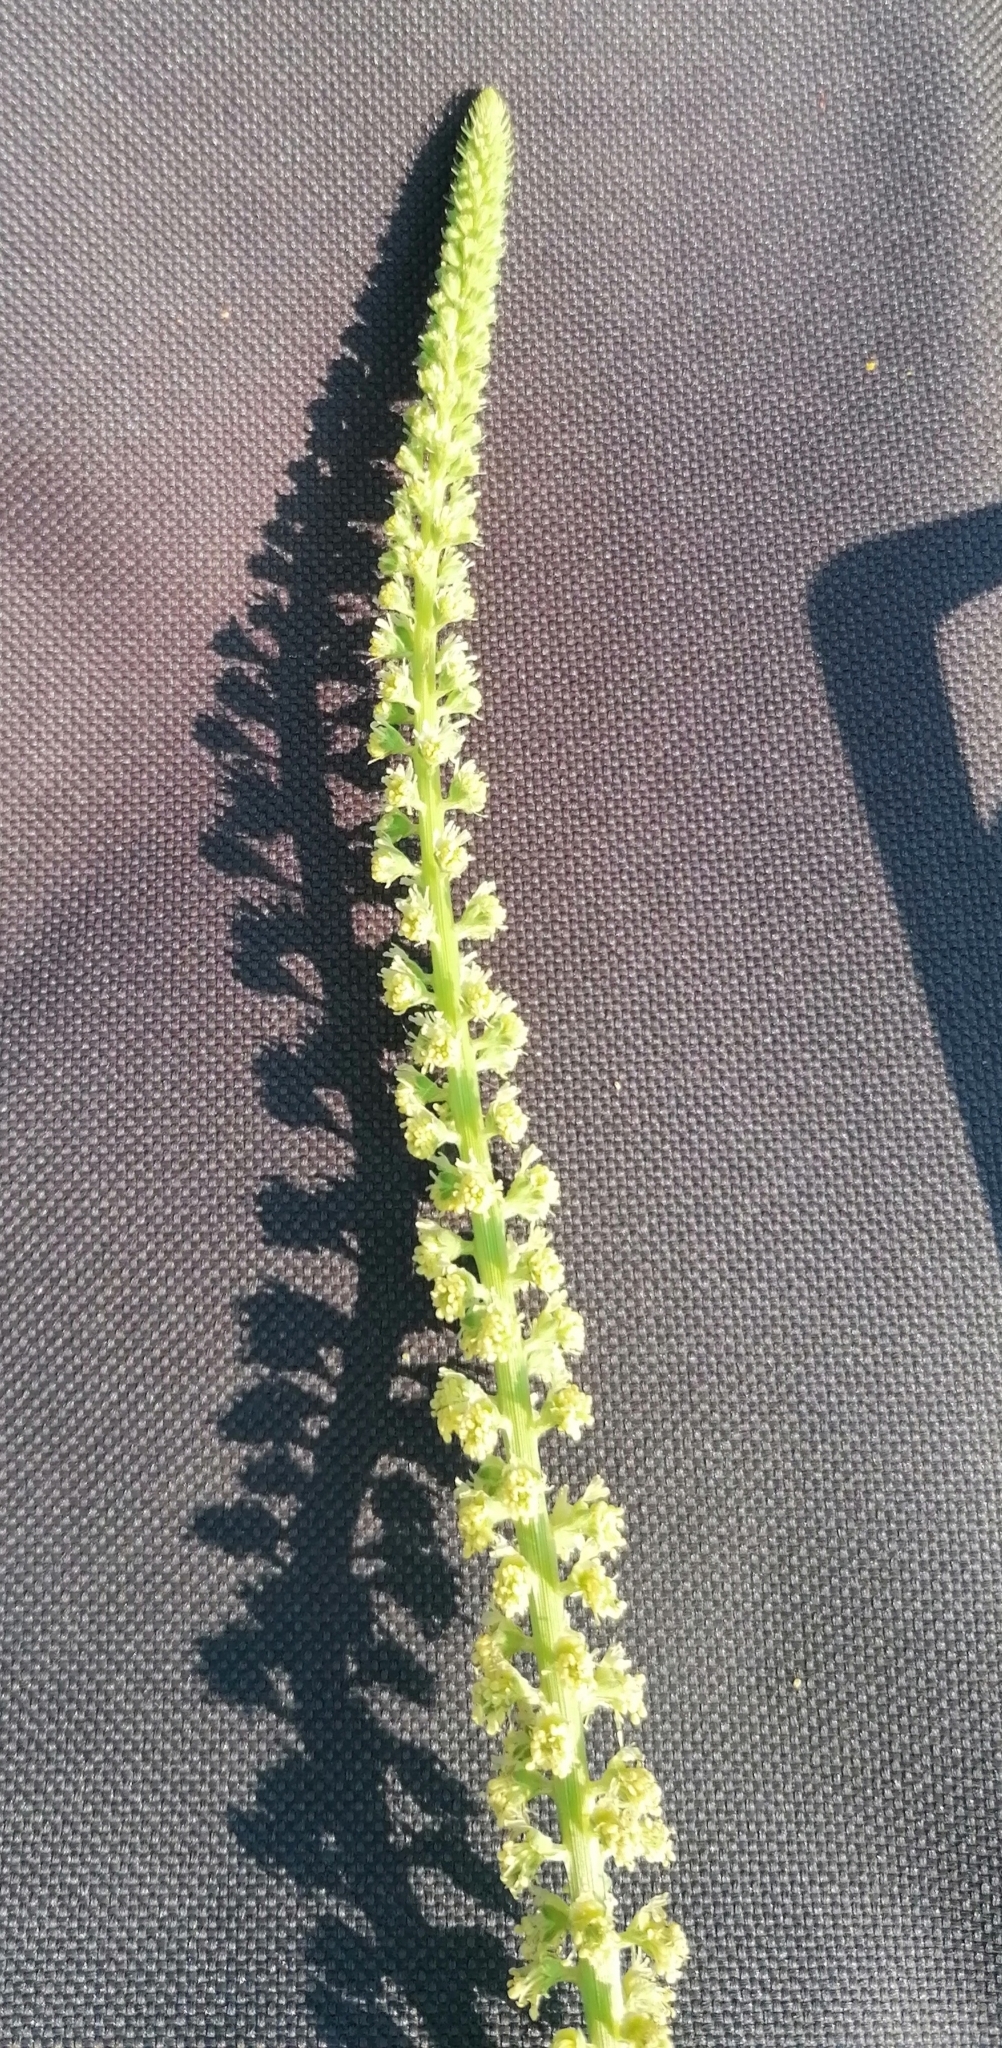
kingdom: Plantae
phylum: Tracheophyta
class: Magnoliopsida
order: Brassicales
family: Resedaceae
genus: Reseda
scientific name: Reseda luteola
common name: Weld
